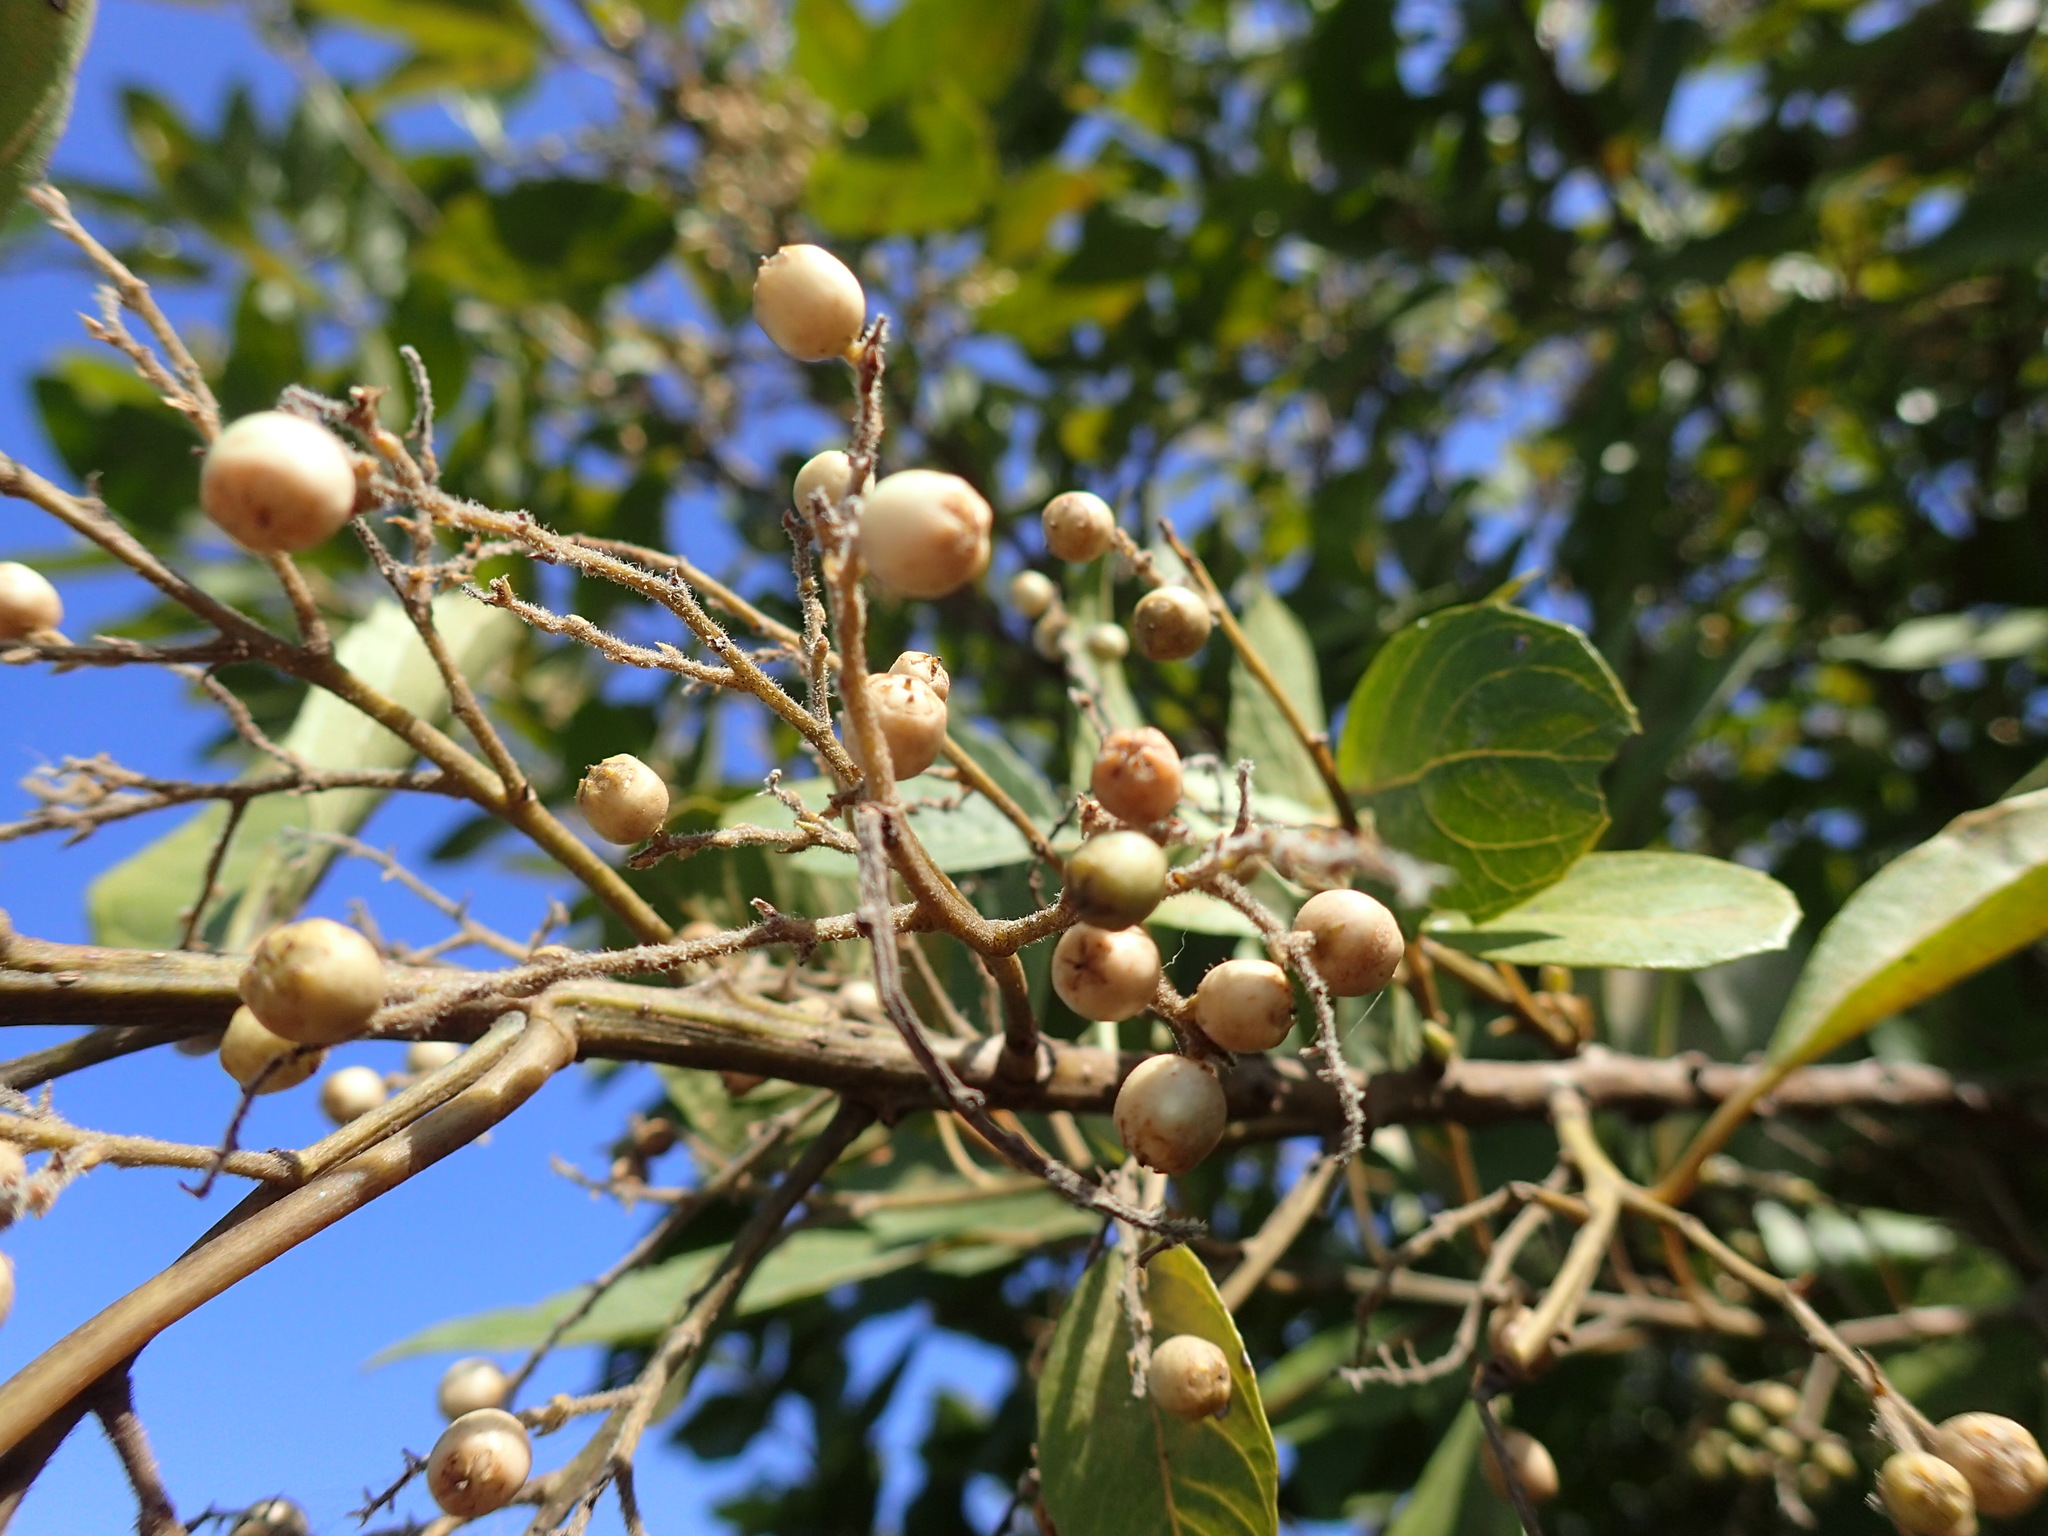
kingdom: Plantae
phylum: Tracheophyta
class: Magnoliopsida
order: Ericales
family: Primulaceae
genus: Maesa
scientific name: Maesa lanceolata
